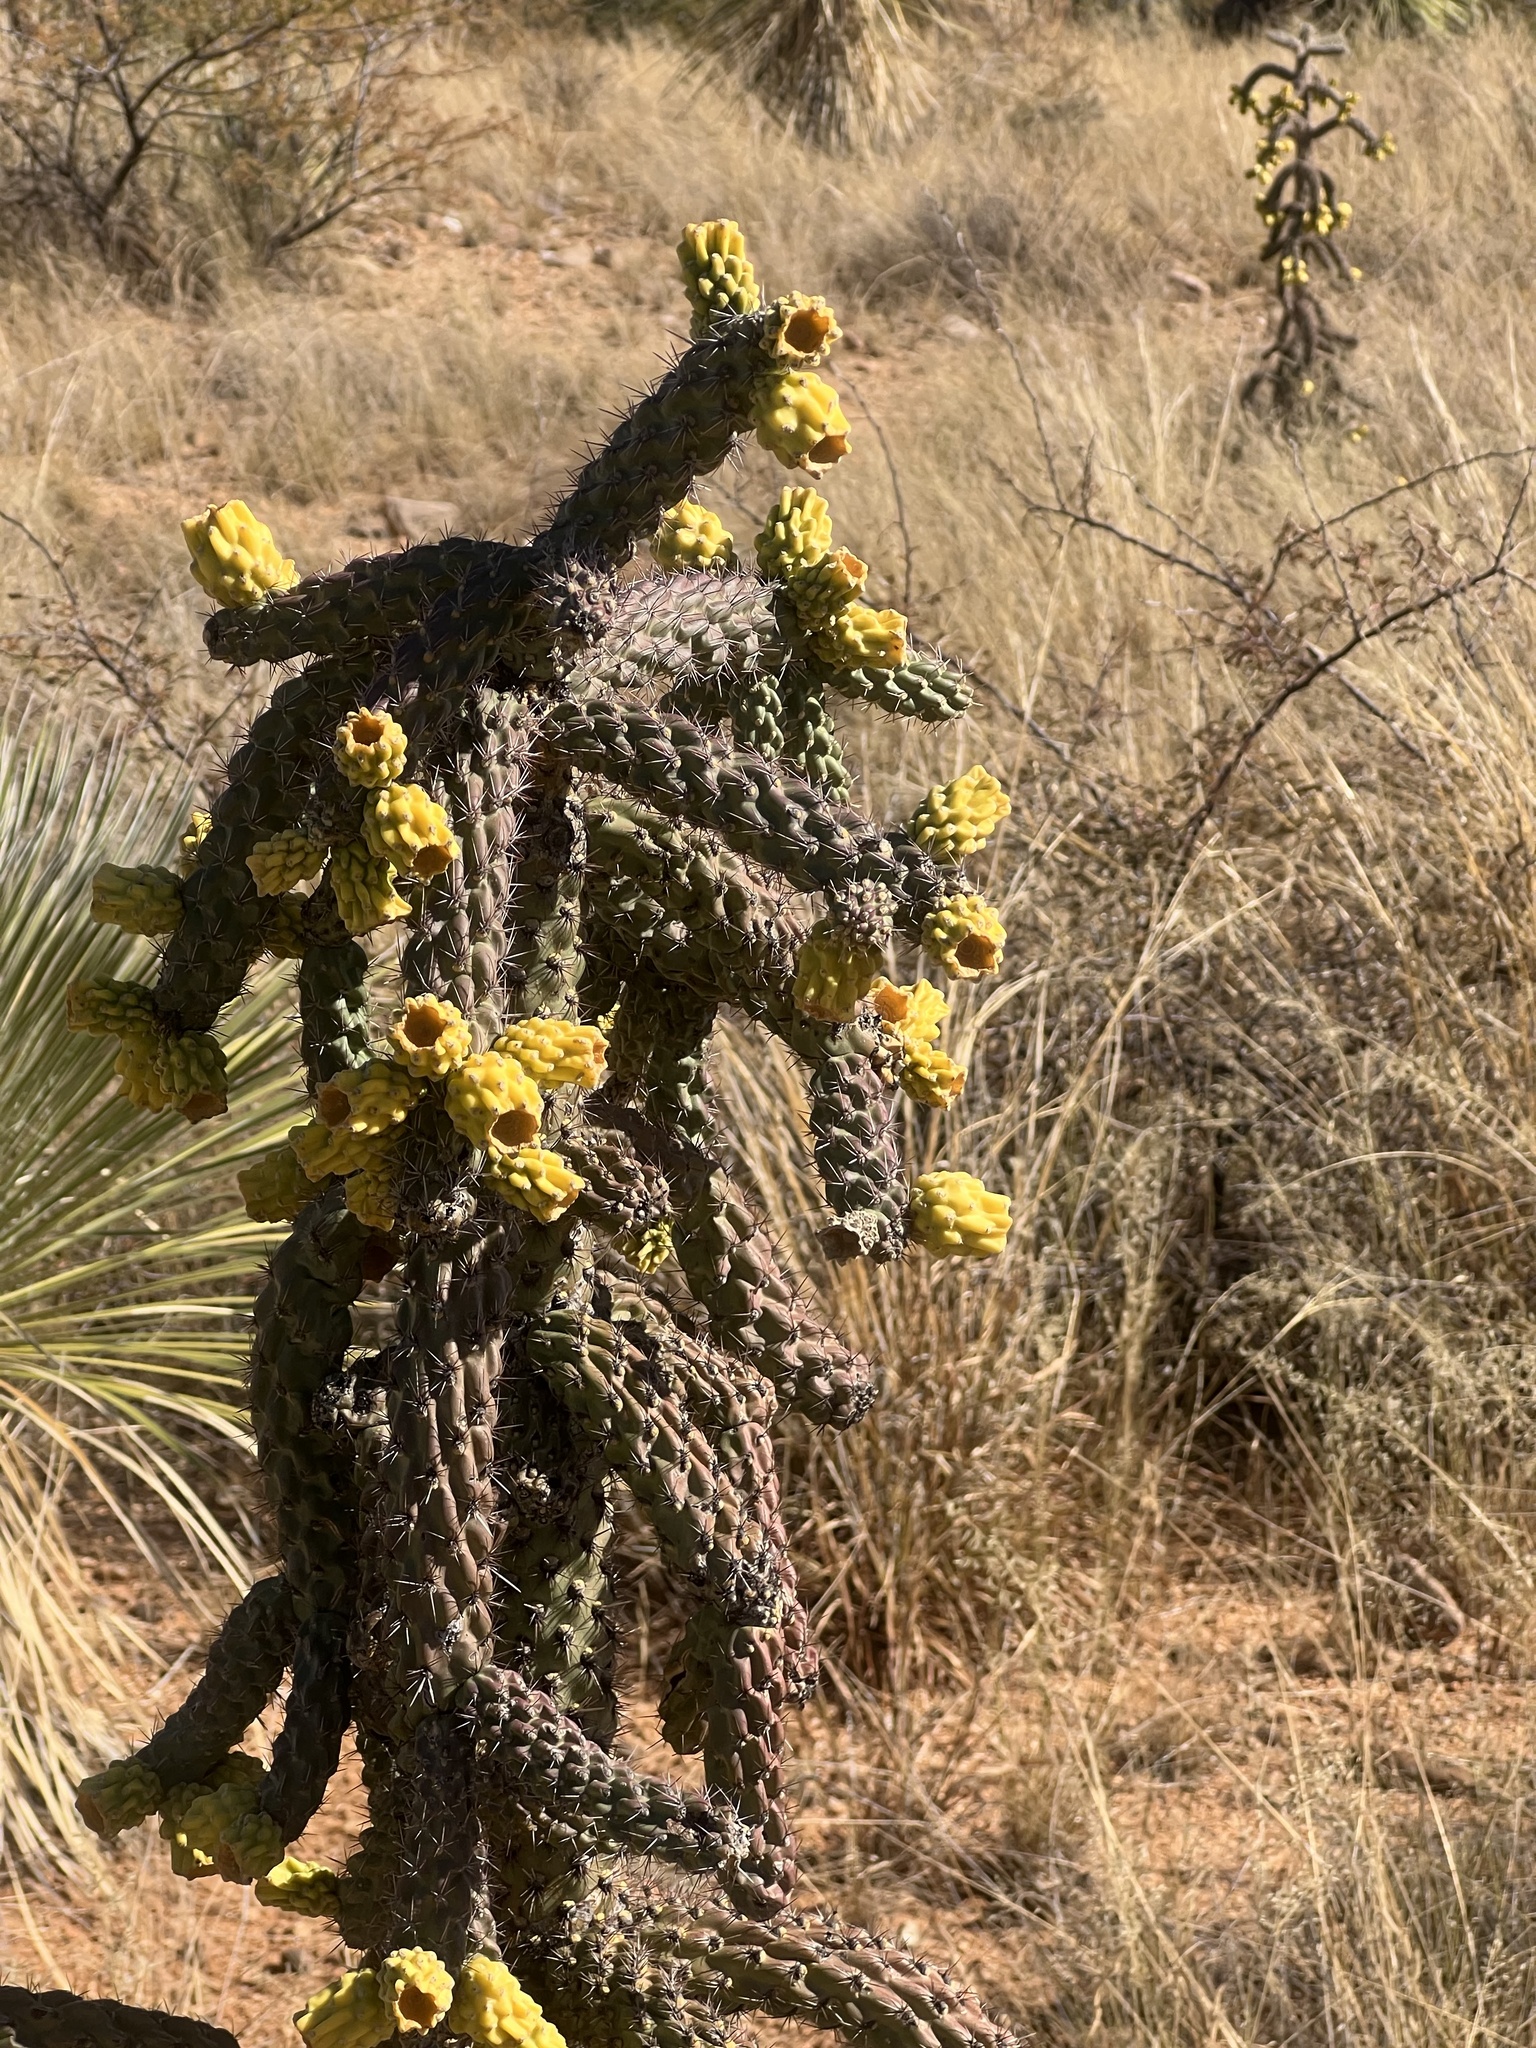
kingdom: Plantae
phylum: Tracheophyta
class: Magnoliopsida
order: Caryophyllales
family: Cactaceae
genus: Cylindropuntia
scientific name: Cylindropuntia imbricata
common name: Candelabrum cactus
